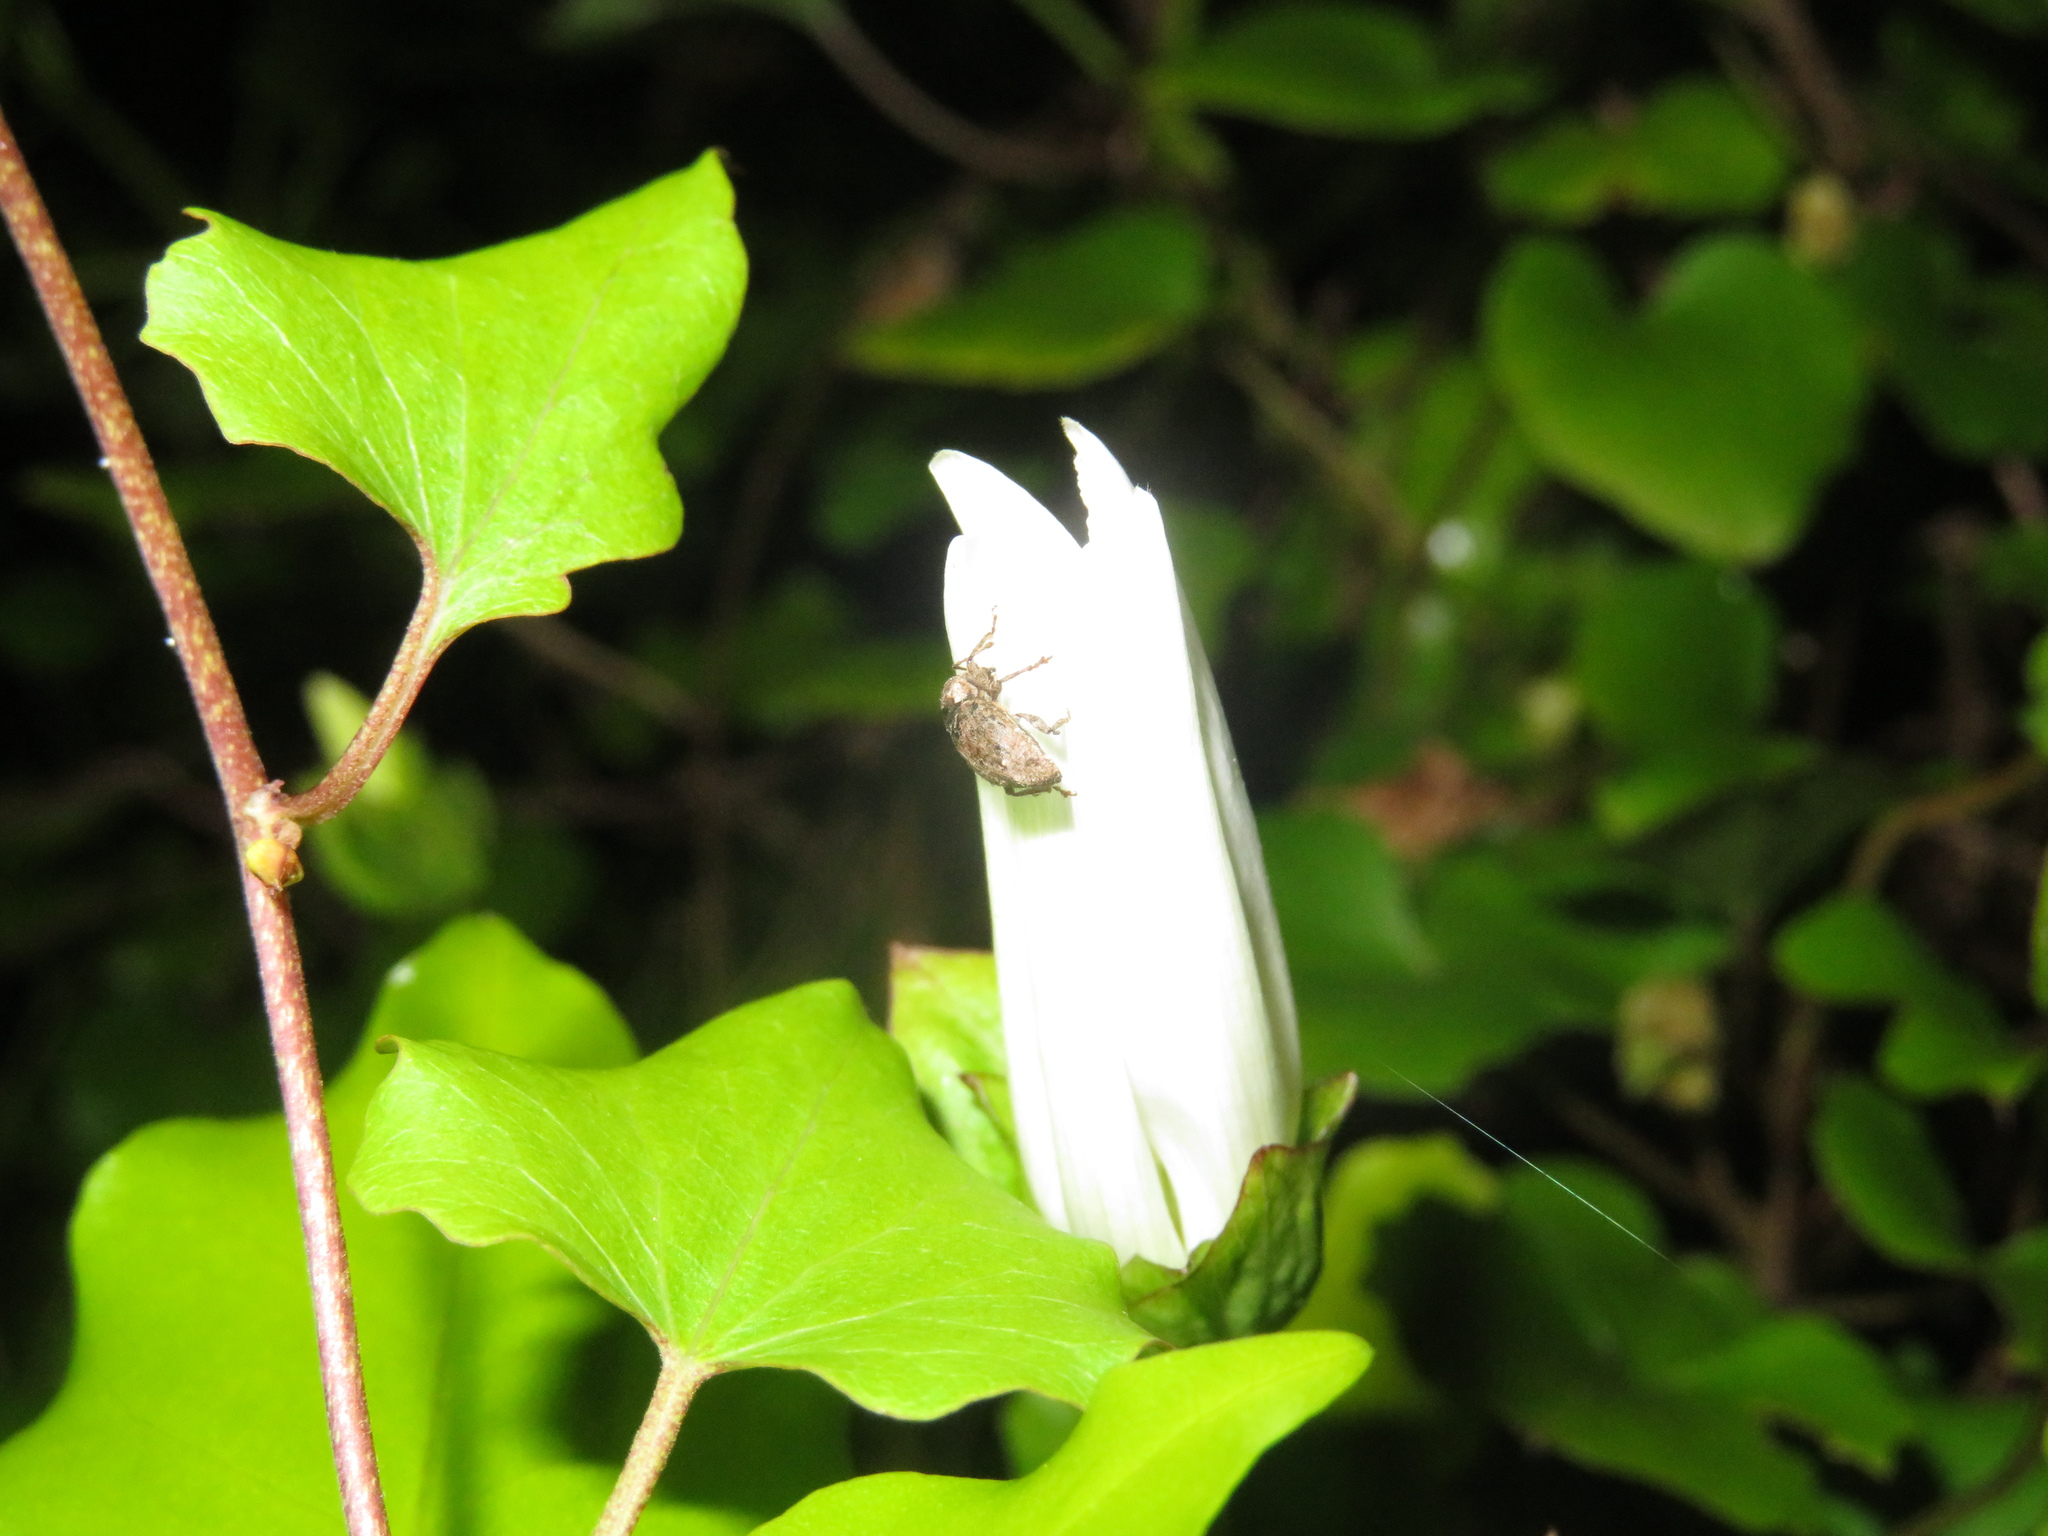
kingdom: Animalia
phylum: Arthropoda
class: Insecta
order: Coleoptera
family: Curculionidae
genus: Chalepistes
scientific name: Chalepistes compressus
